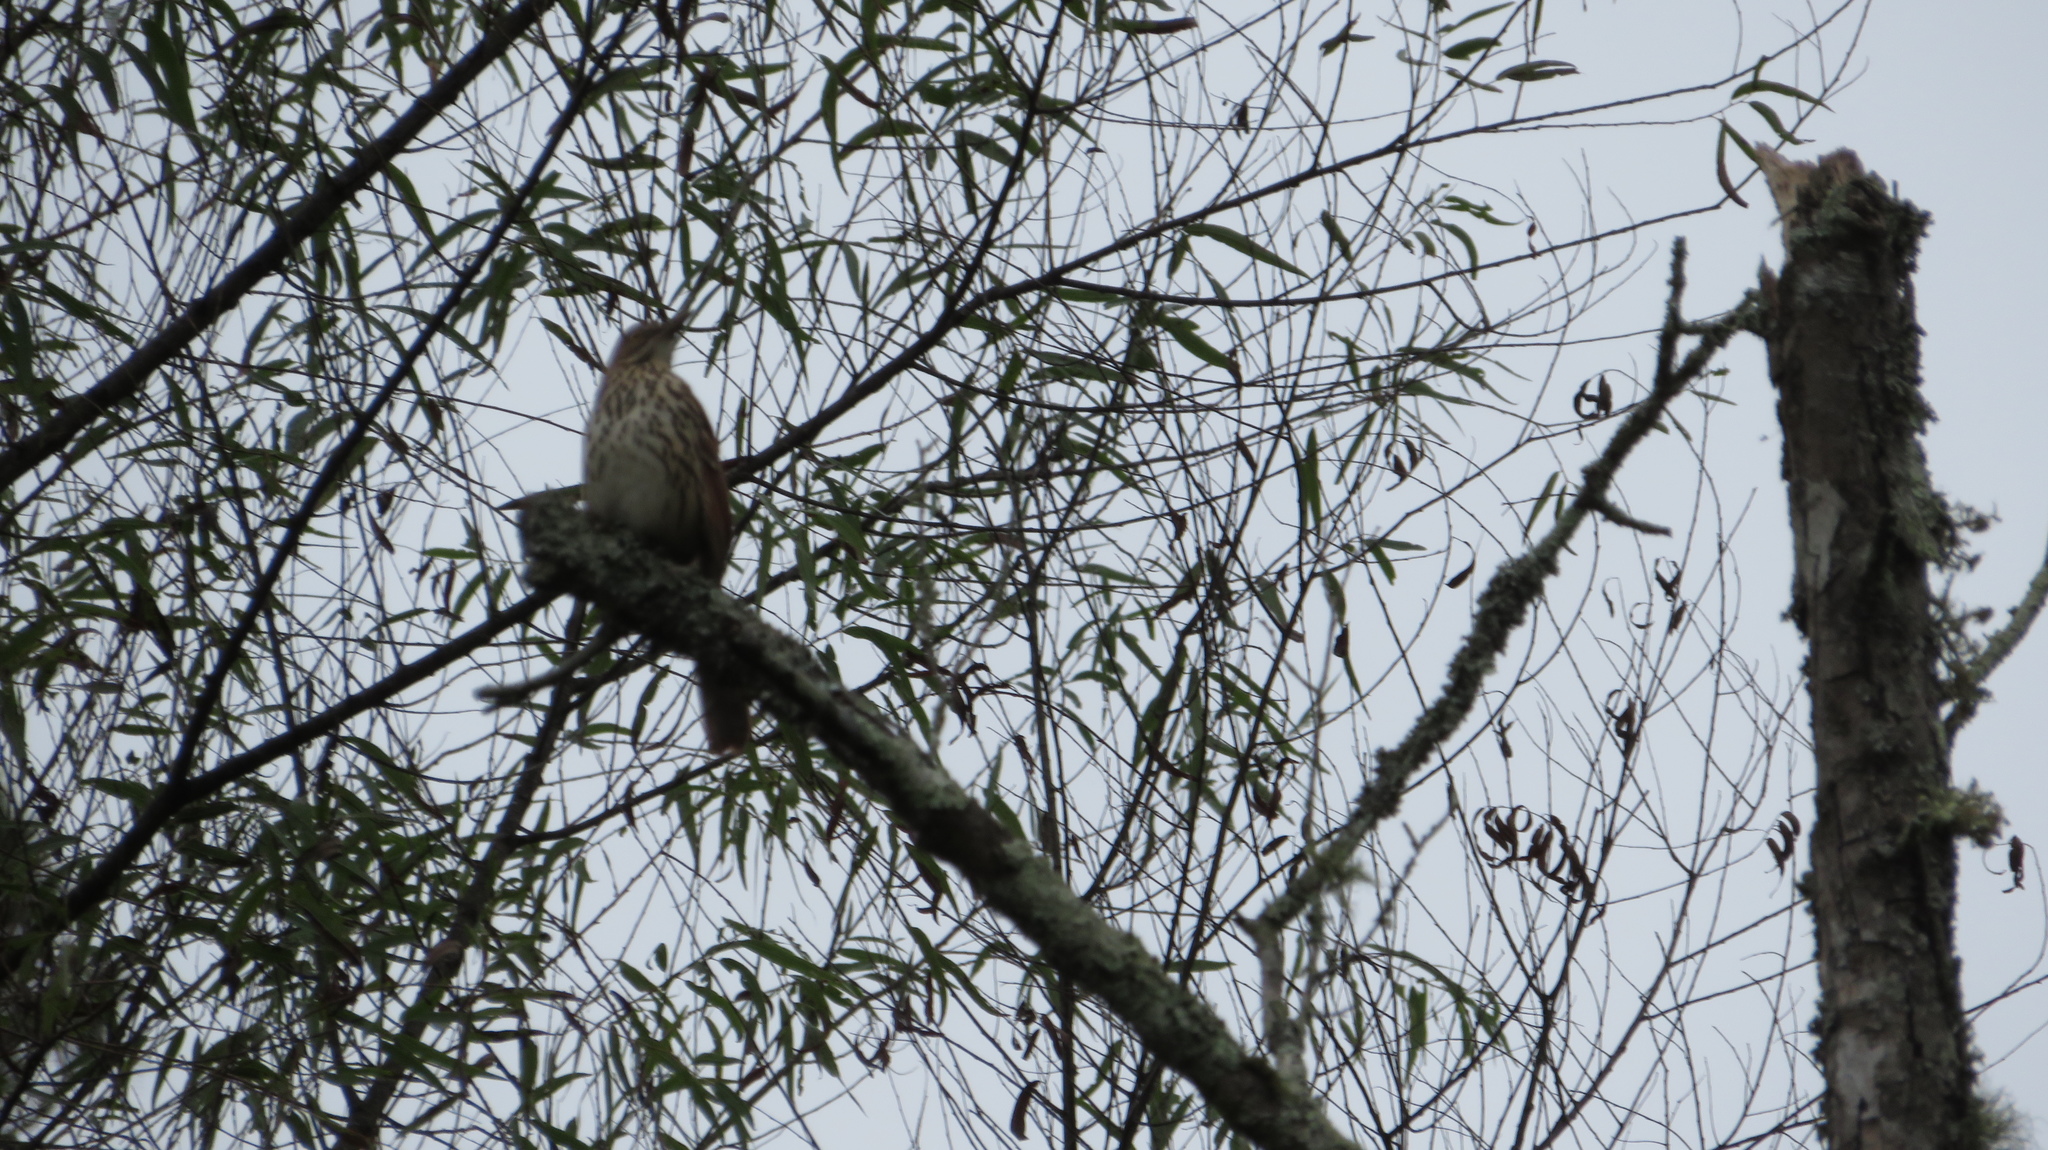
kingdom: Animalia
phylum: Chordata
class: Aves
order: Passeriformes
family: Mimidae
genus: Toxostoma
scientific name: Toxostoma rufum
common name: Brown thrasher
